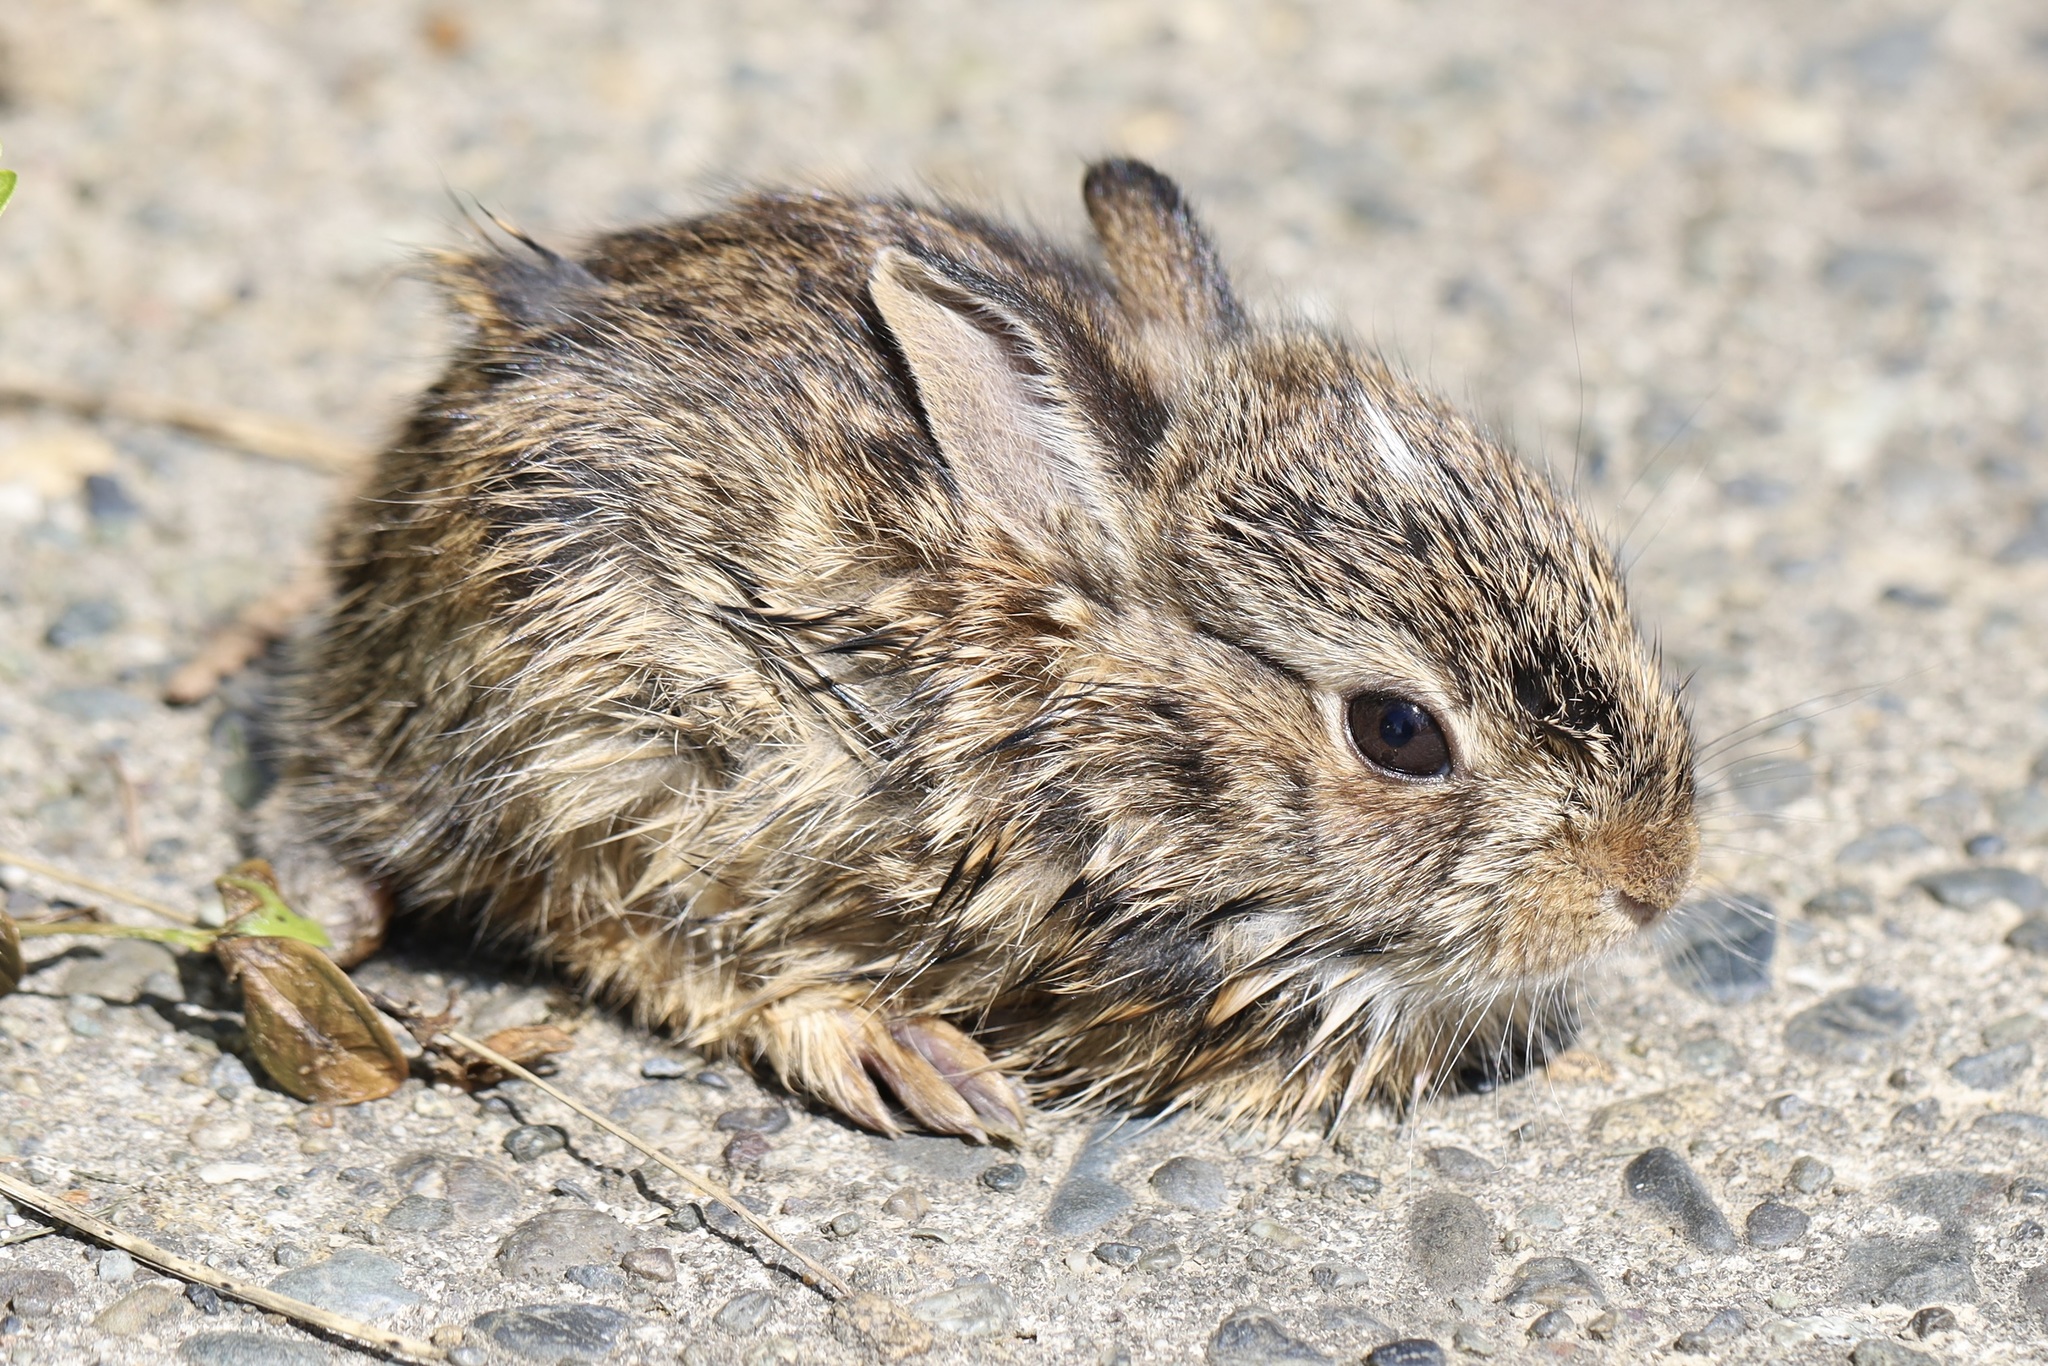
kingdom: Animalia
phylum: Chordata
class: Mammalia
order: Lagomorpha
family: Leporidae
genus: Sylvilagus
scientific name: Sylvilagus floridanus
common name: Eastern cottontail
